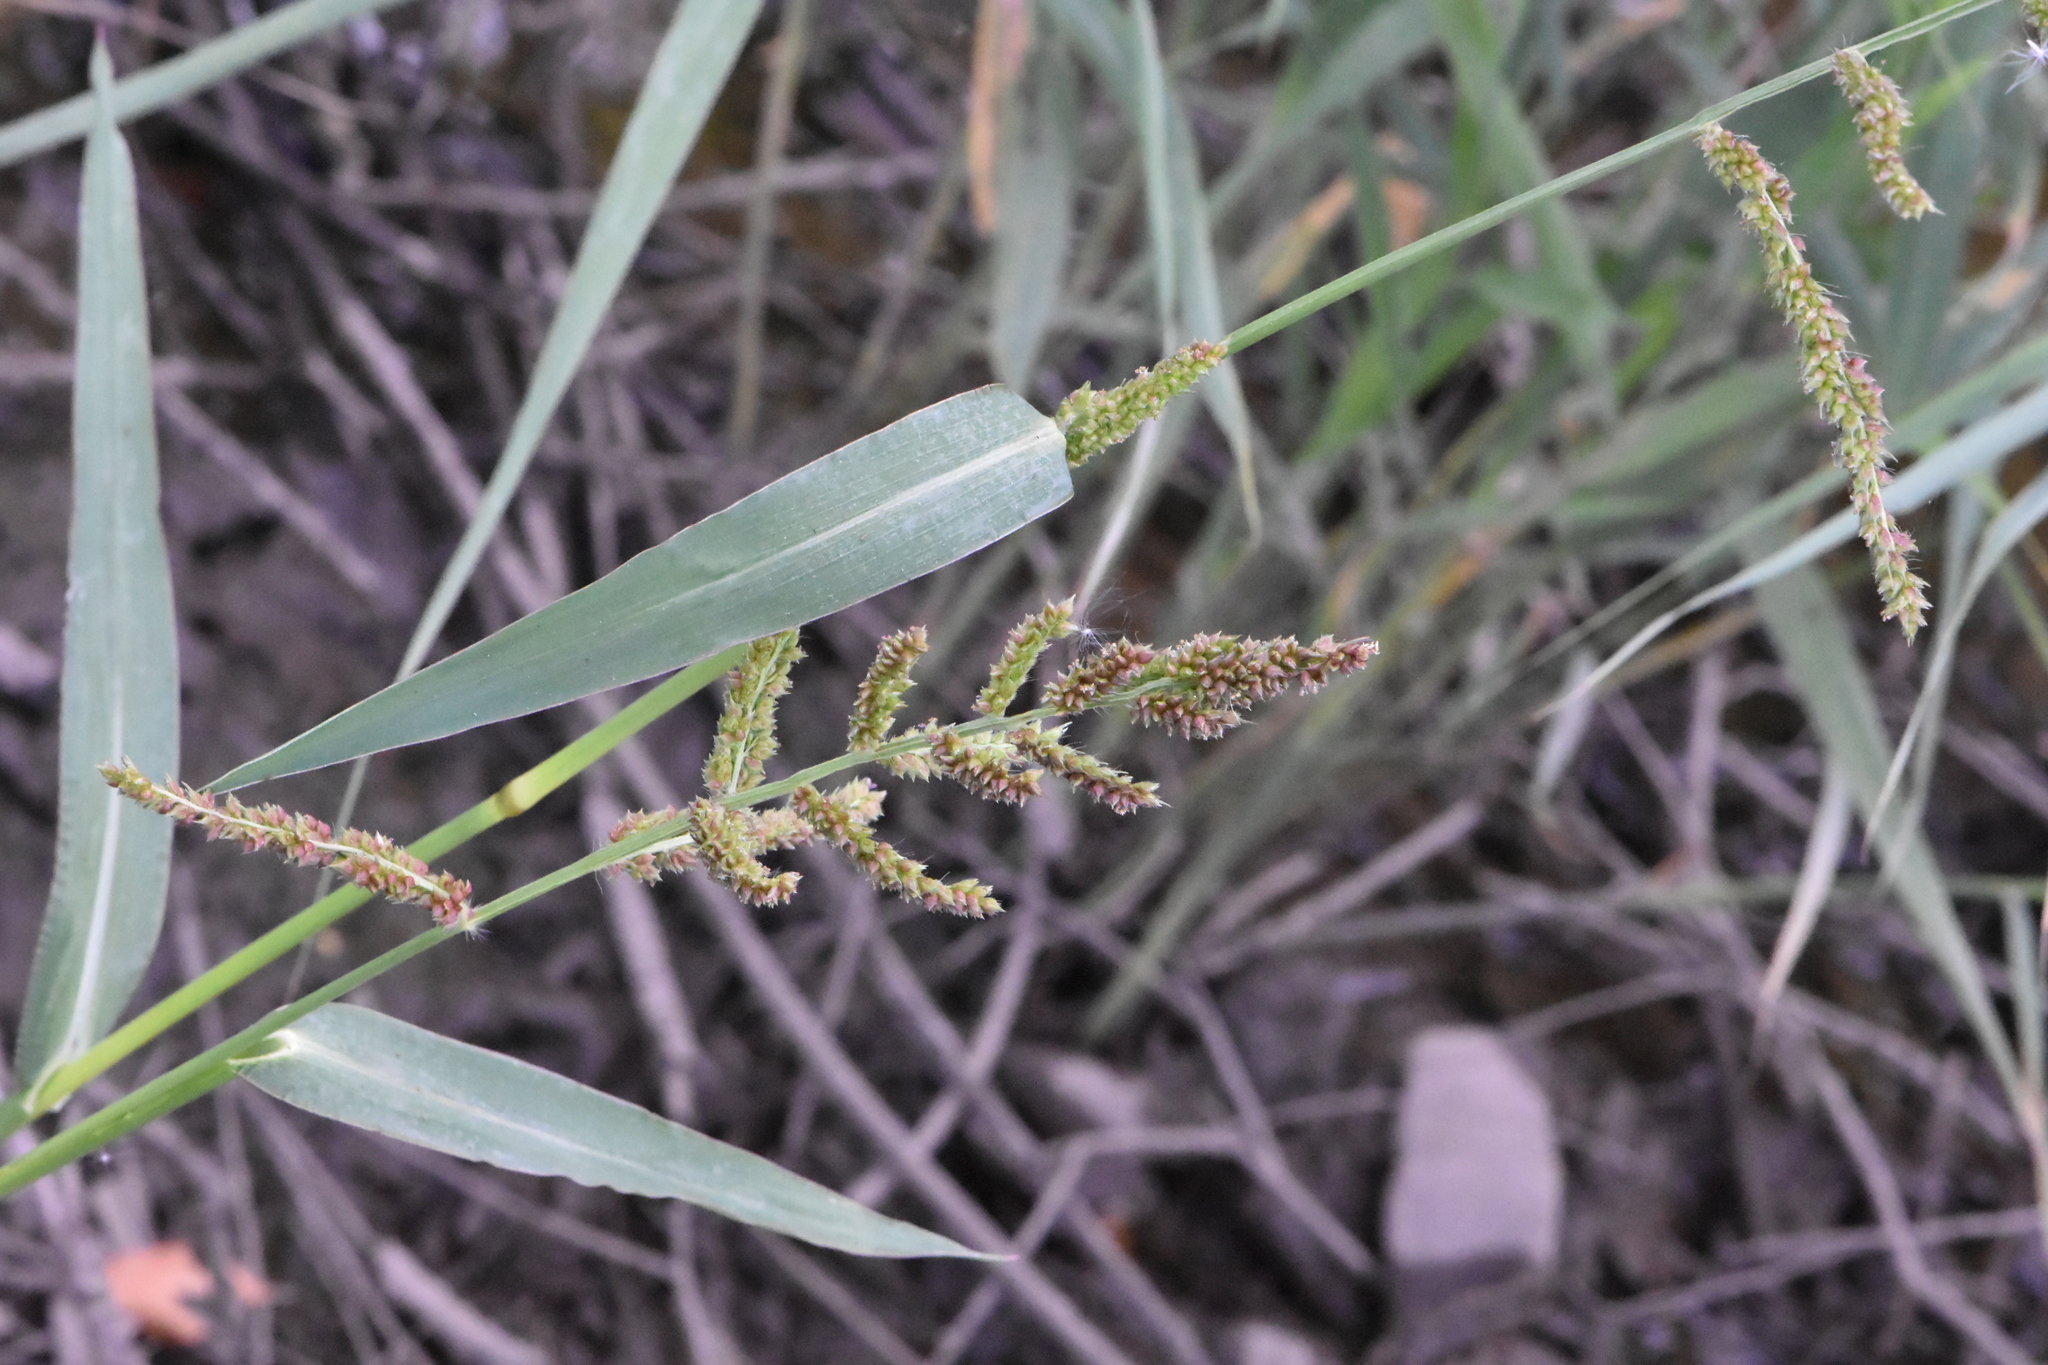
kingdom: Plantae
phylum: Tracheophyta
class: Liliopsida
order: Poales
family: Poaceae
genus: Echinochloa
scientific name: Echinochloa crus-galli
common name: Cockspur
